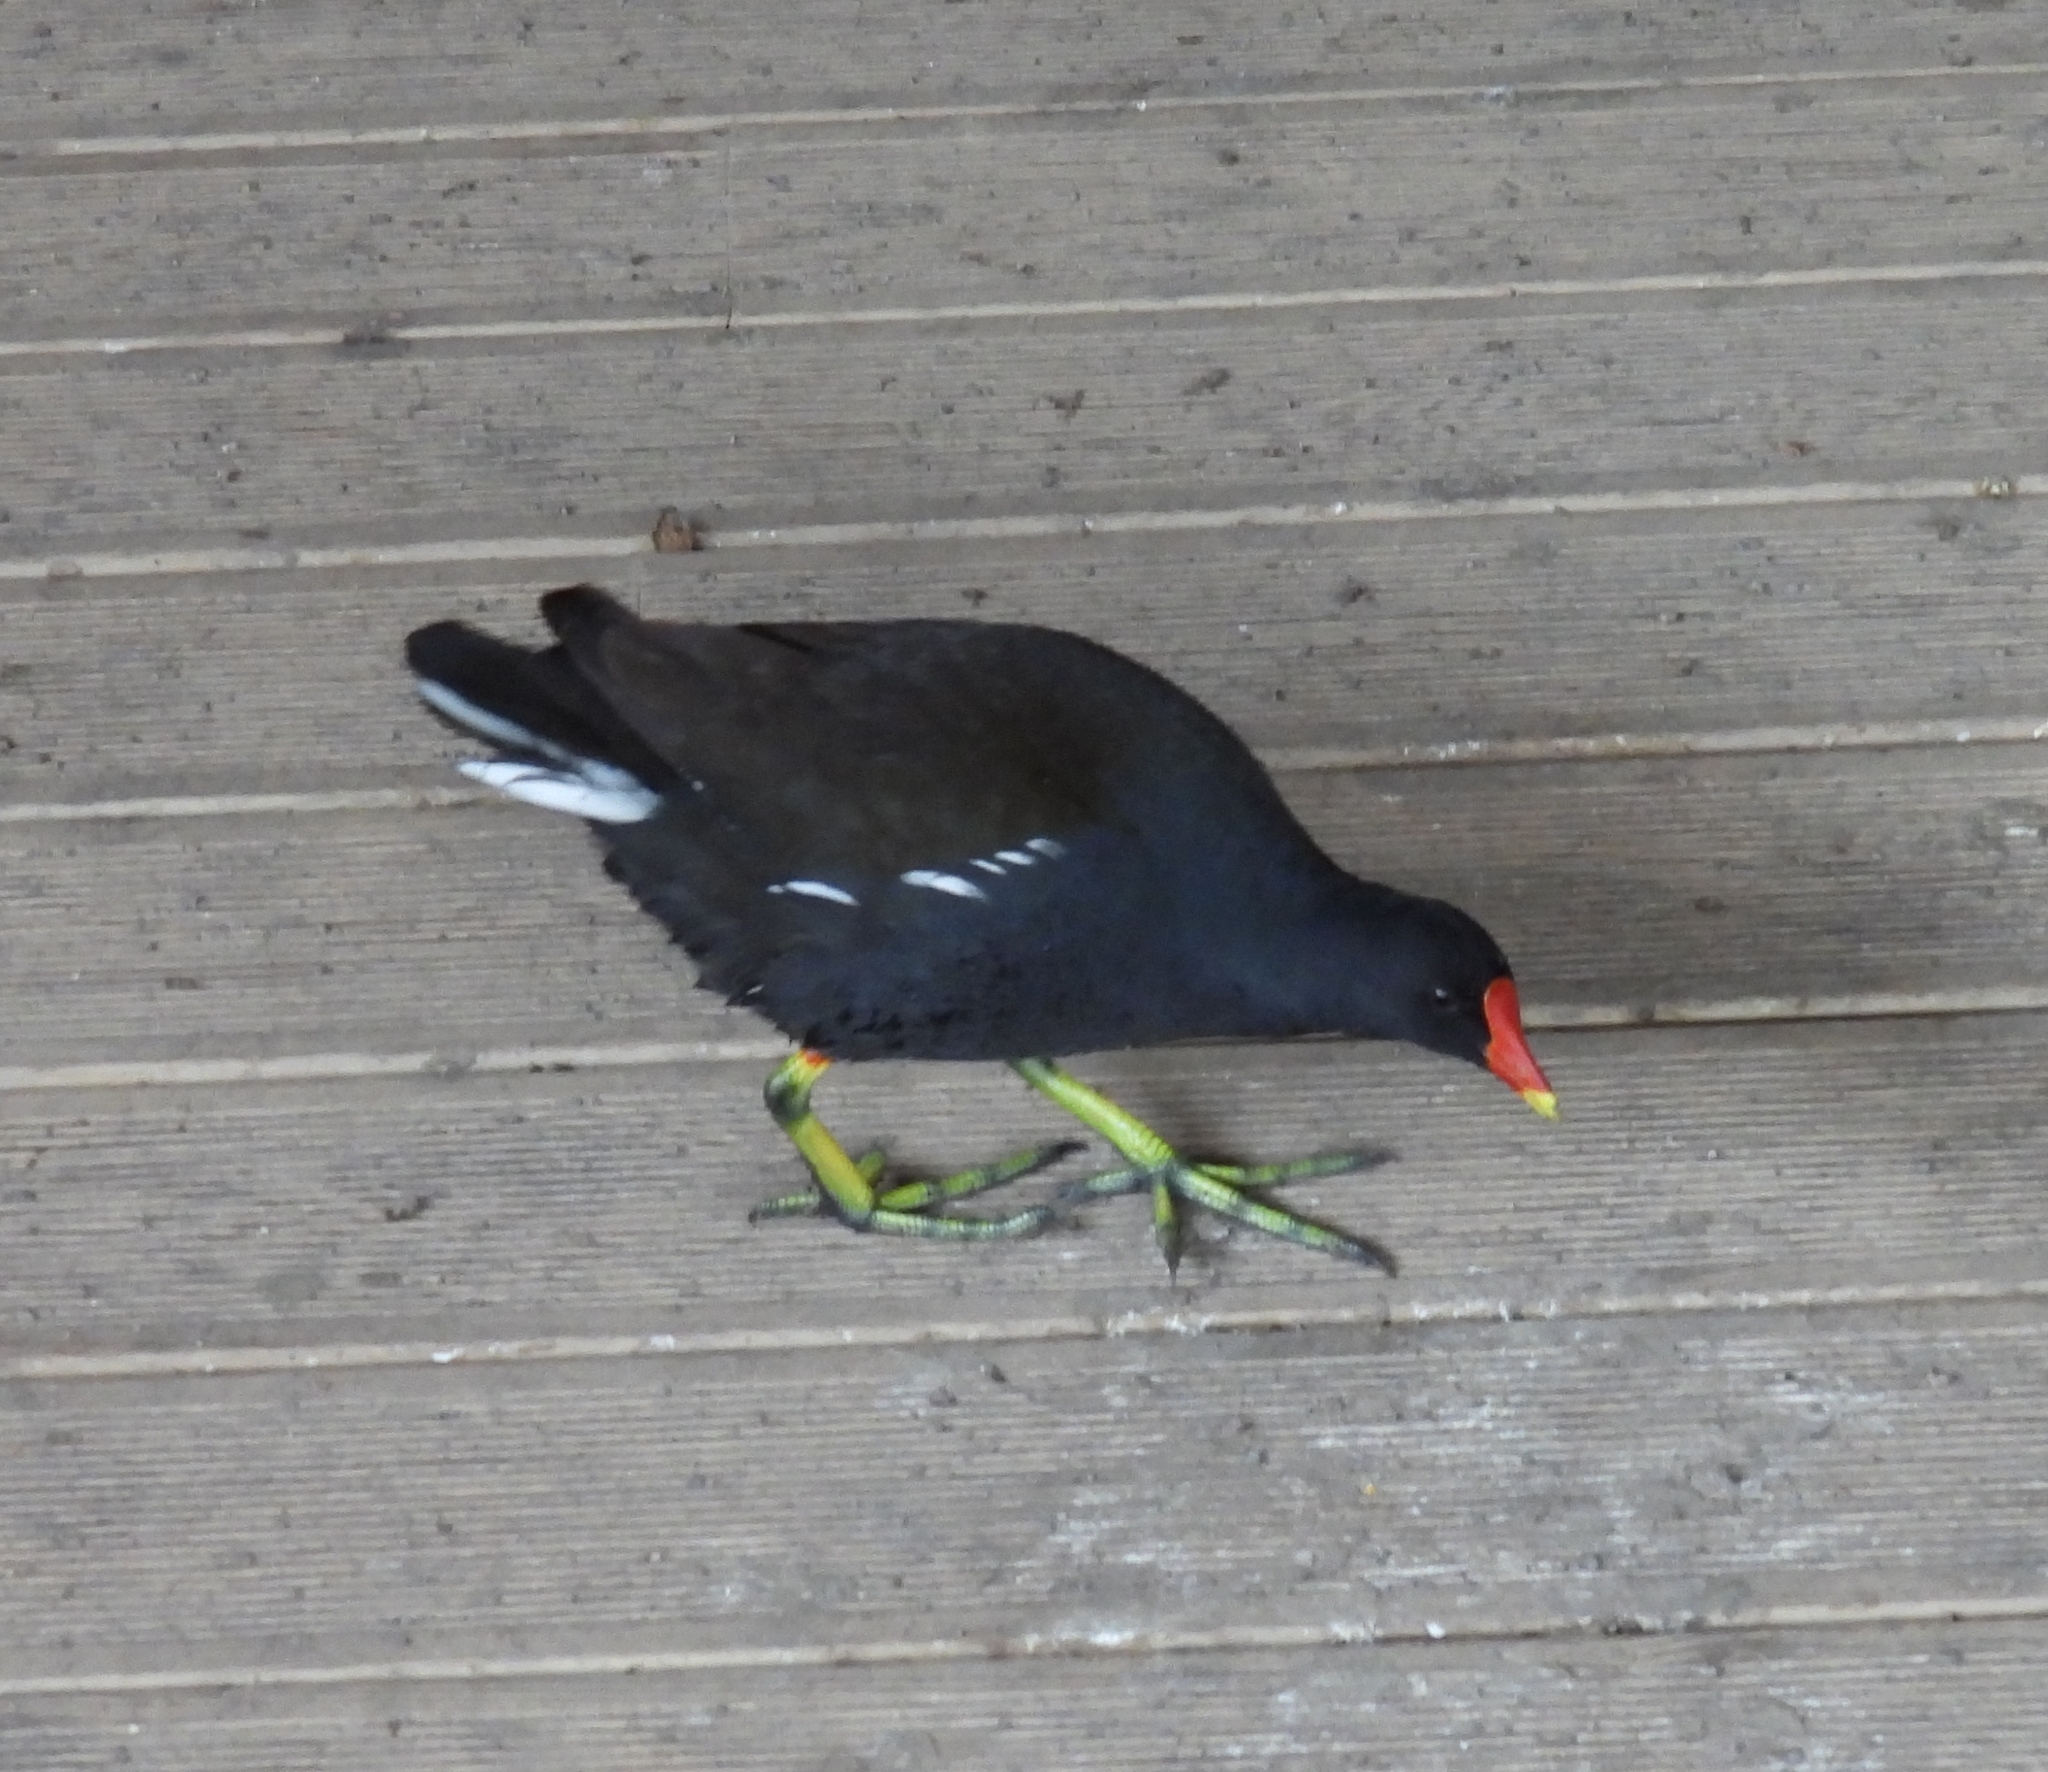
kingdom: Animalia
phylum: Chordata
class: Aves
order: Gruiformes
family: Rallidae
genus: Gallinula
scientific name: Gallinula chloropus
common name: Common moorhen
